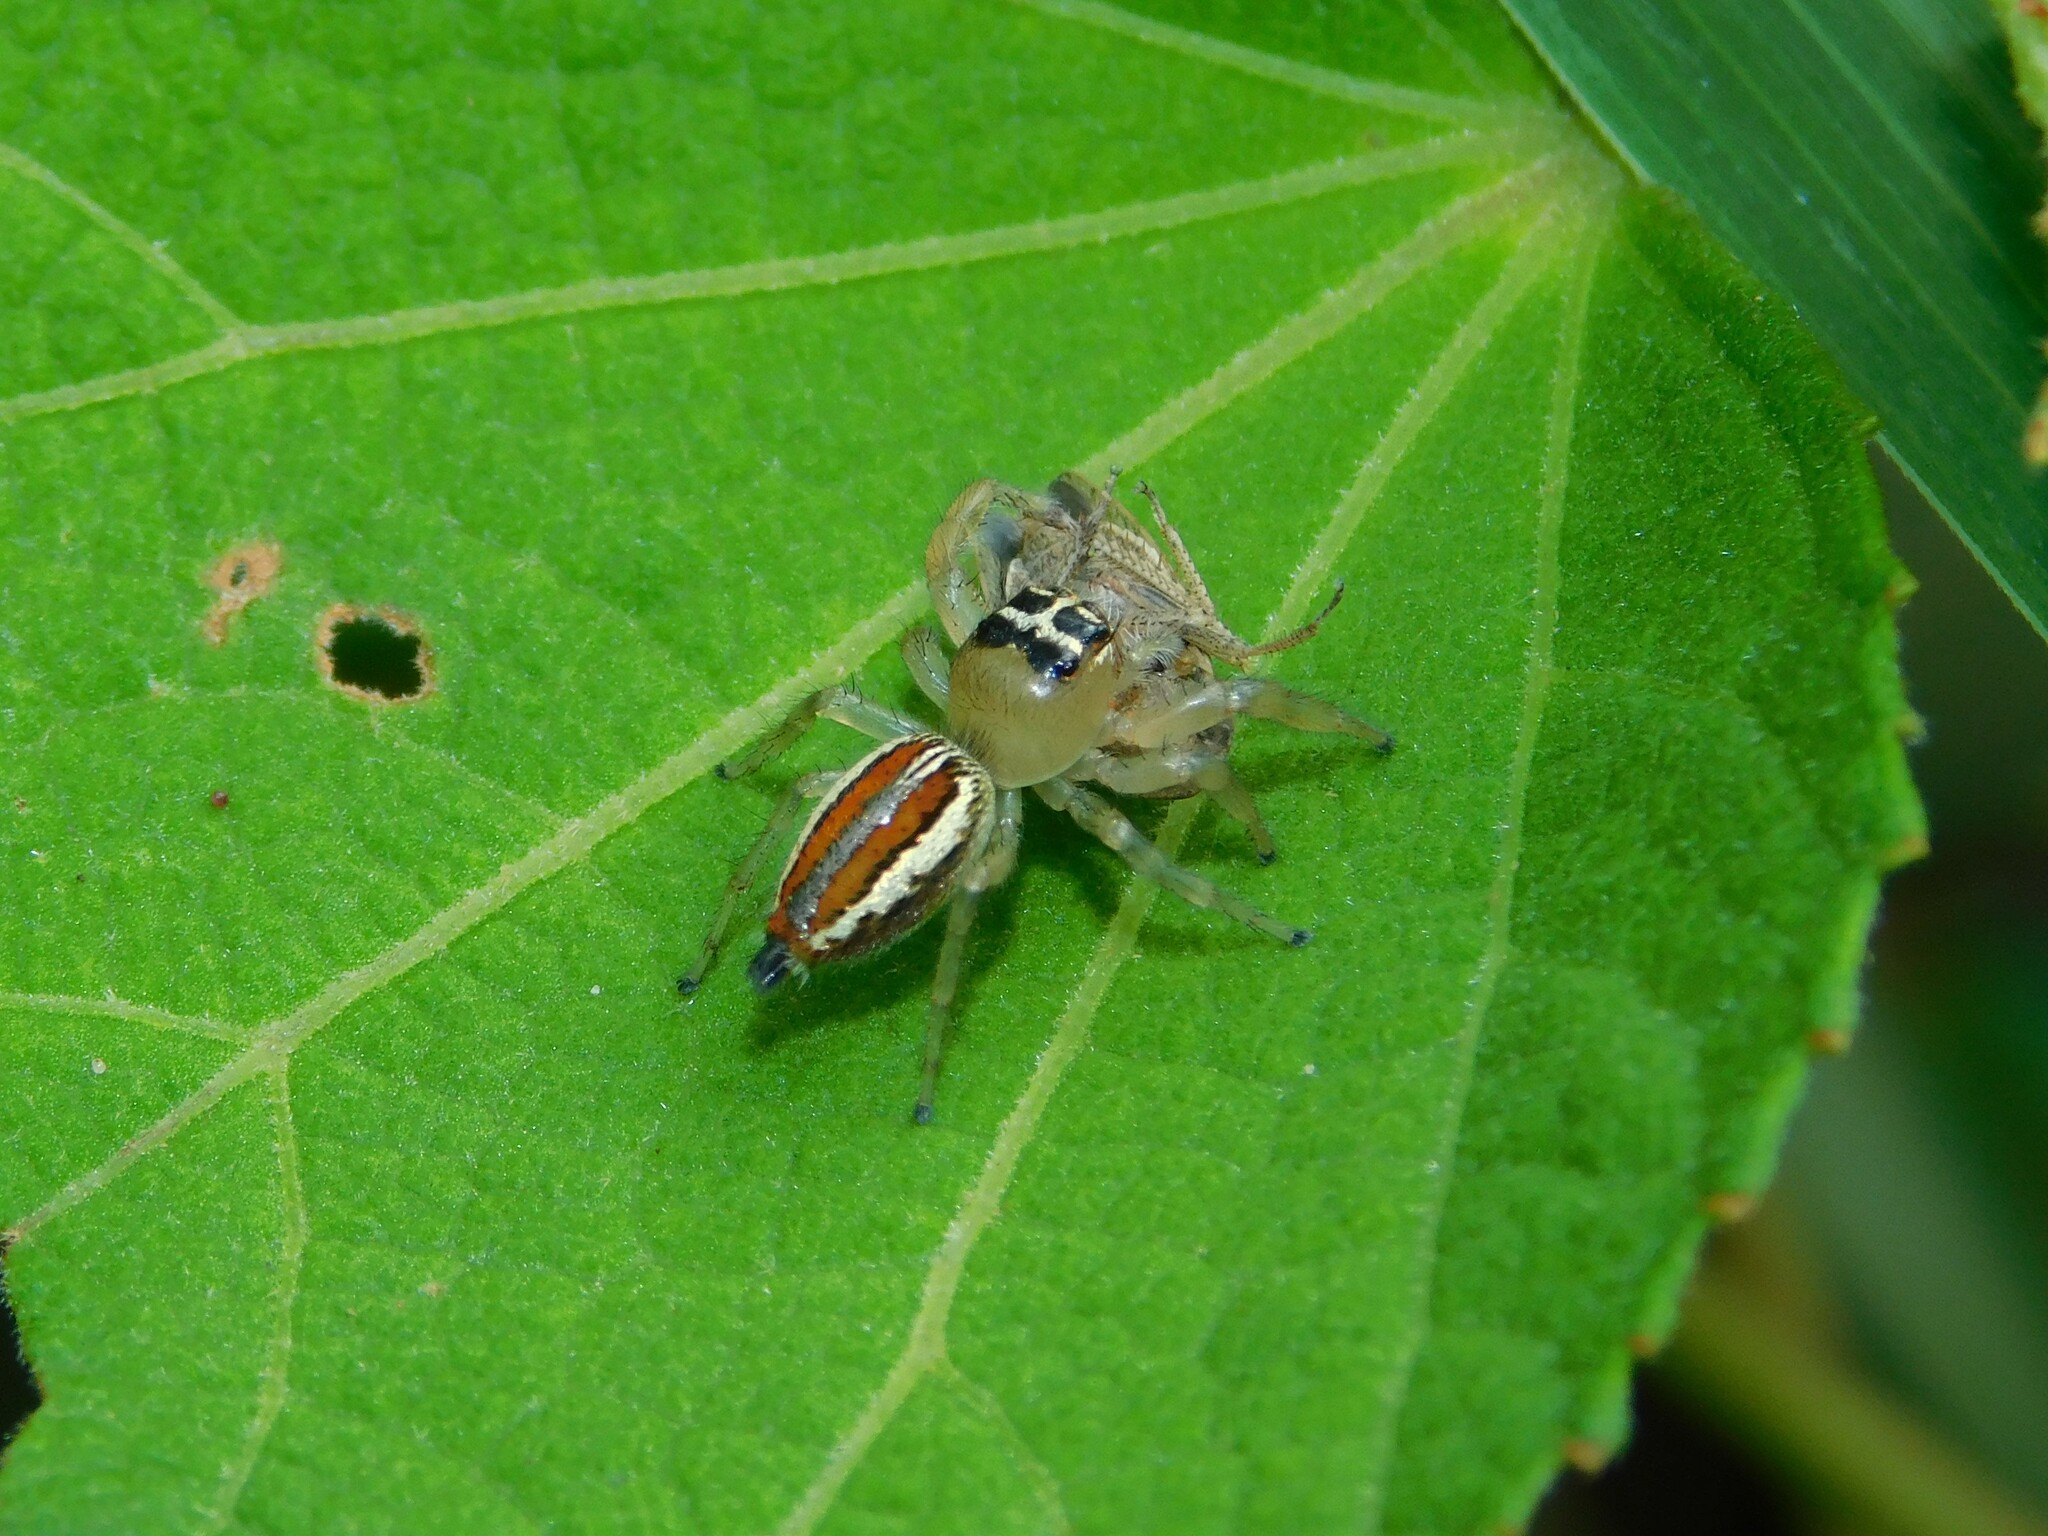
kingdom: Animalia
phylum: Arthropoda
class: Arachnida
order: Araneae
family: Salticidae
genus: Thyene
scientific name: Thyene inflata
